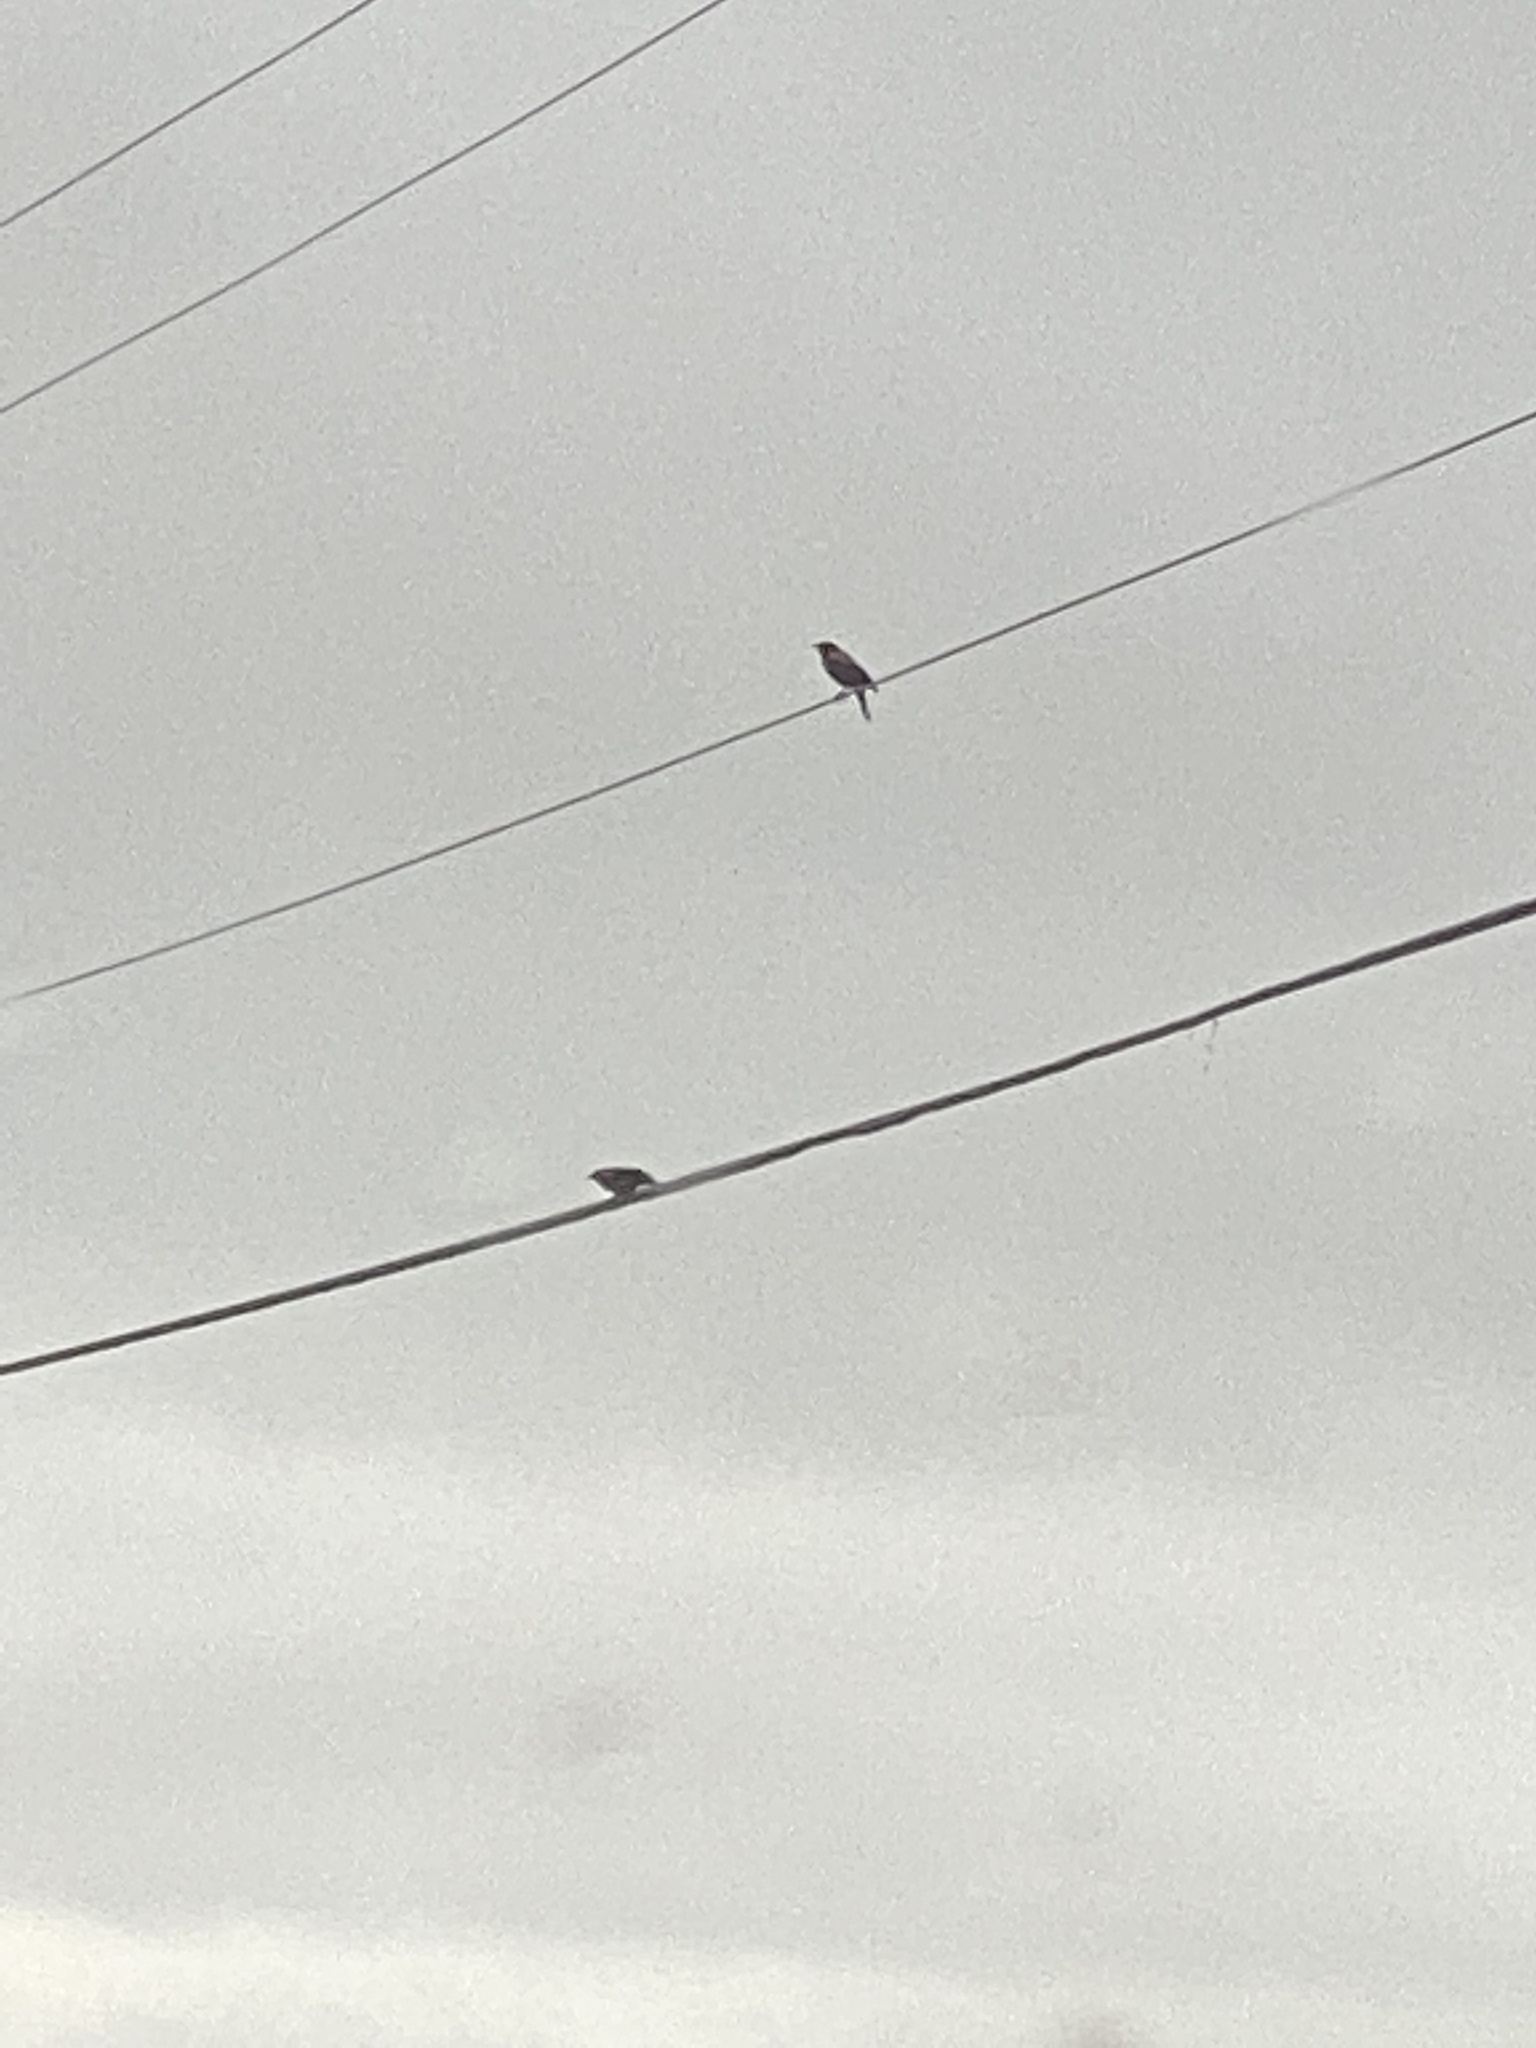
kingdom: Animalia
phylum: Chordata
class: Aves
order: Passeriformes
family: Icteridae
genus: Agelaius
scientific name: Agelaius phoeniceus
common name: Red-winged blackbird
